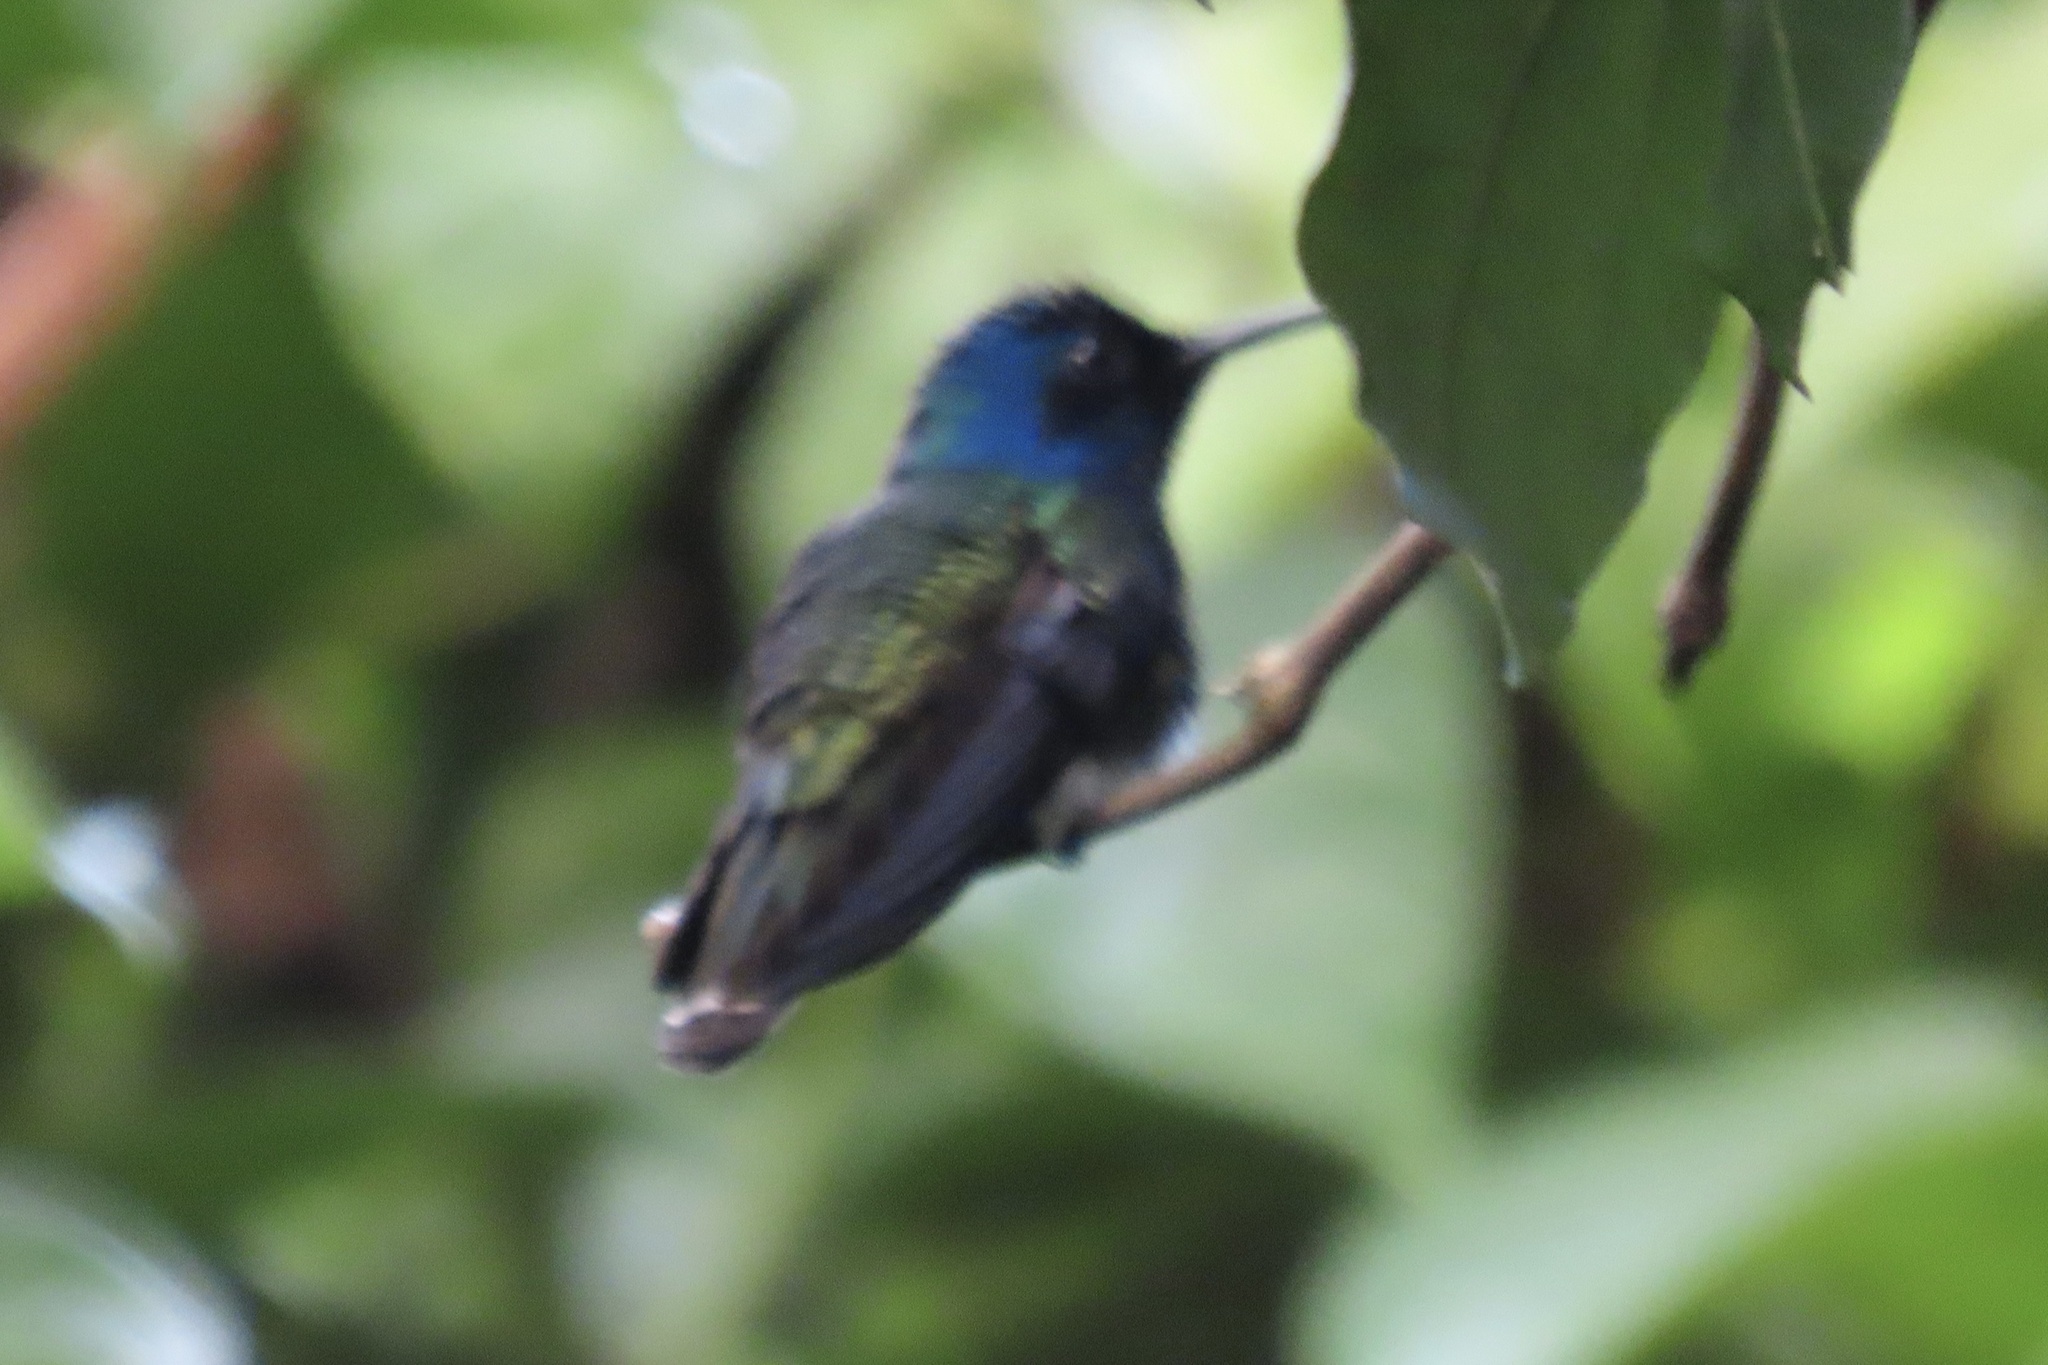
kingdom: Animalia
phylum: Chordata
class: Aves
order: Apodiformes
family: Trochilidae
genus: Klais
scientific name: Klais guimeti
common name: Violet-headed hummingbird
